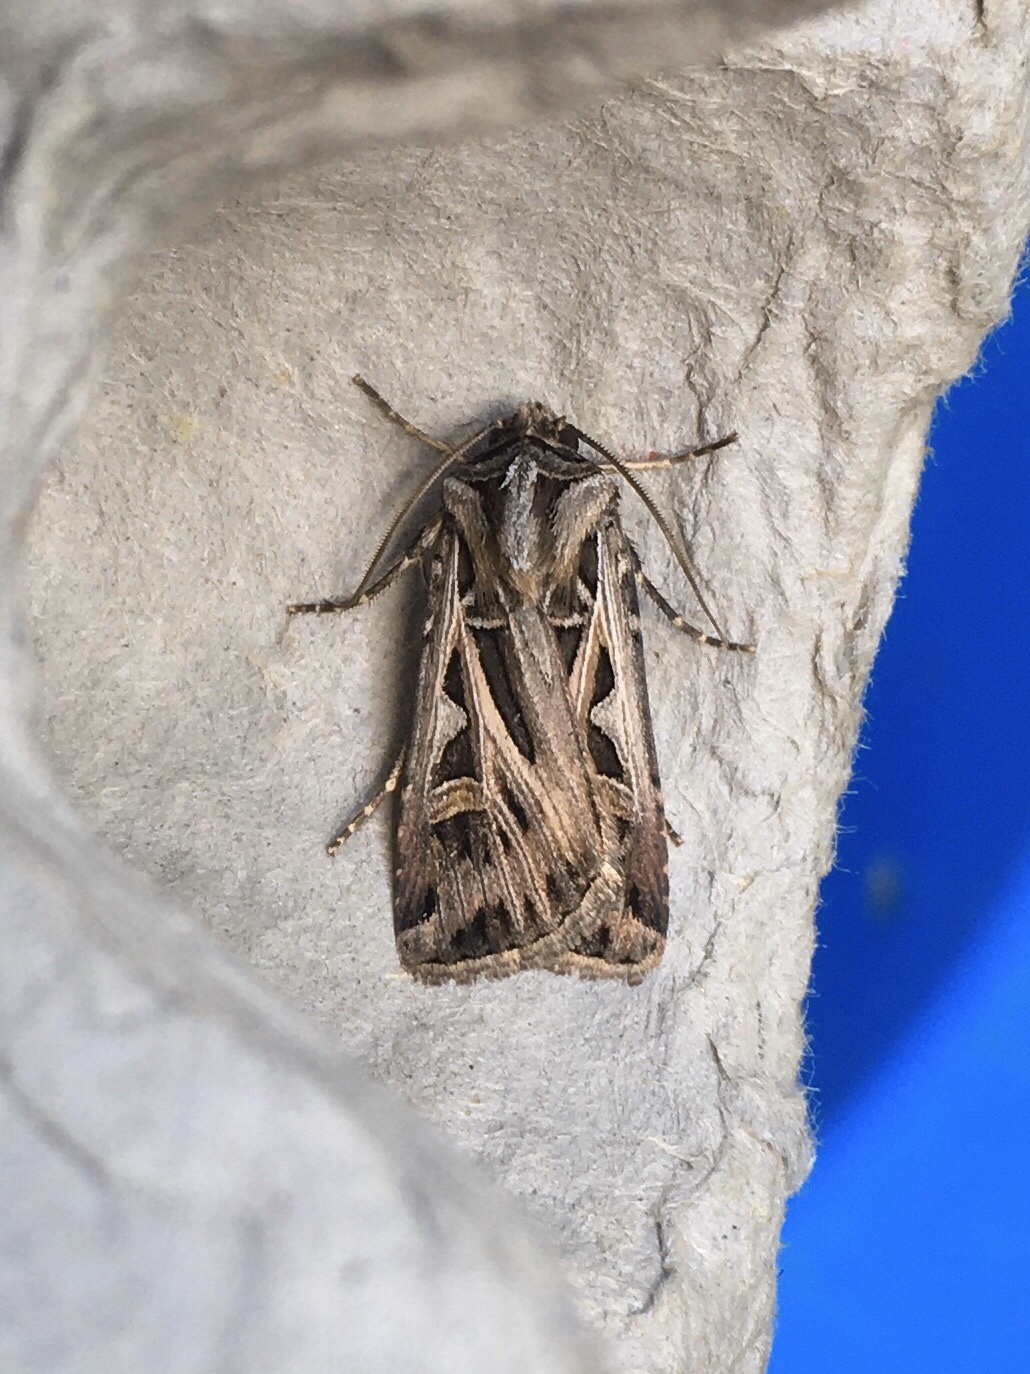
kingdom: Animalia
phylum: Arthropoda
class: Insecta
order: Lepidoptera
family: Noctuidae
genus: Feltia
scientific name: Feltia jaculifera
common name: Dingy cutworm moth
